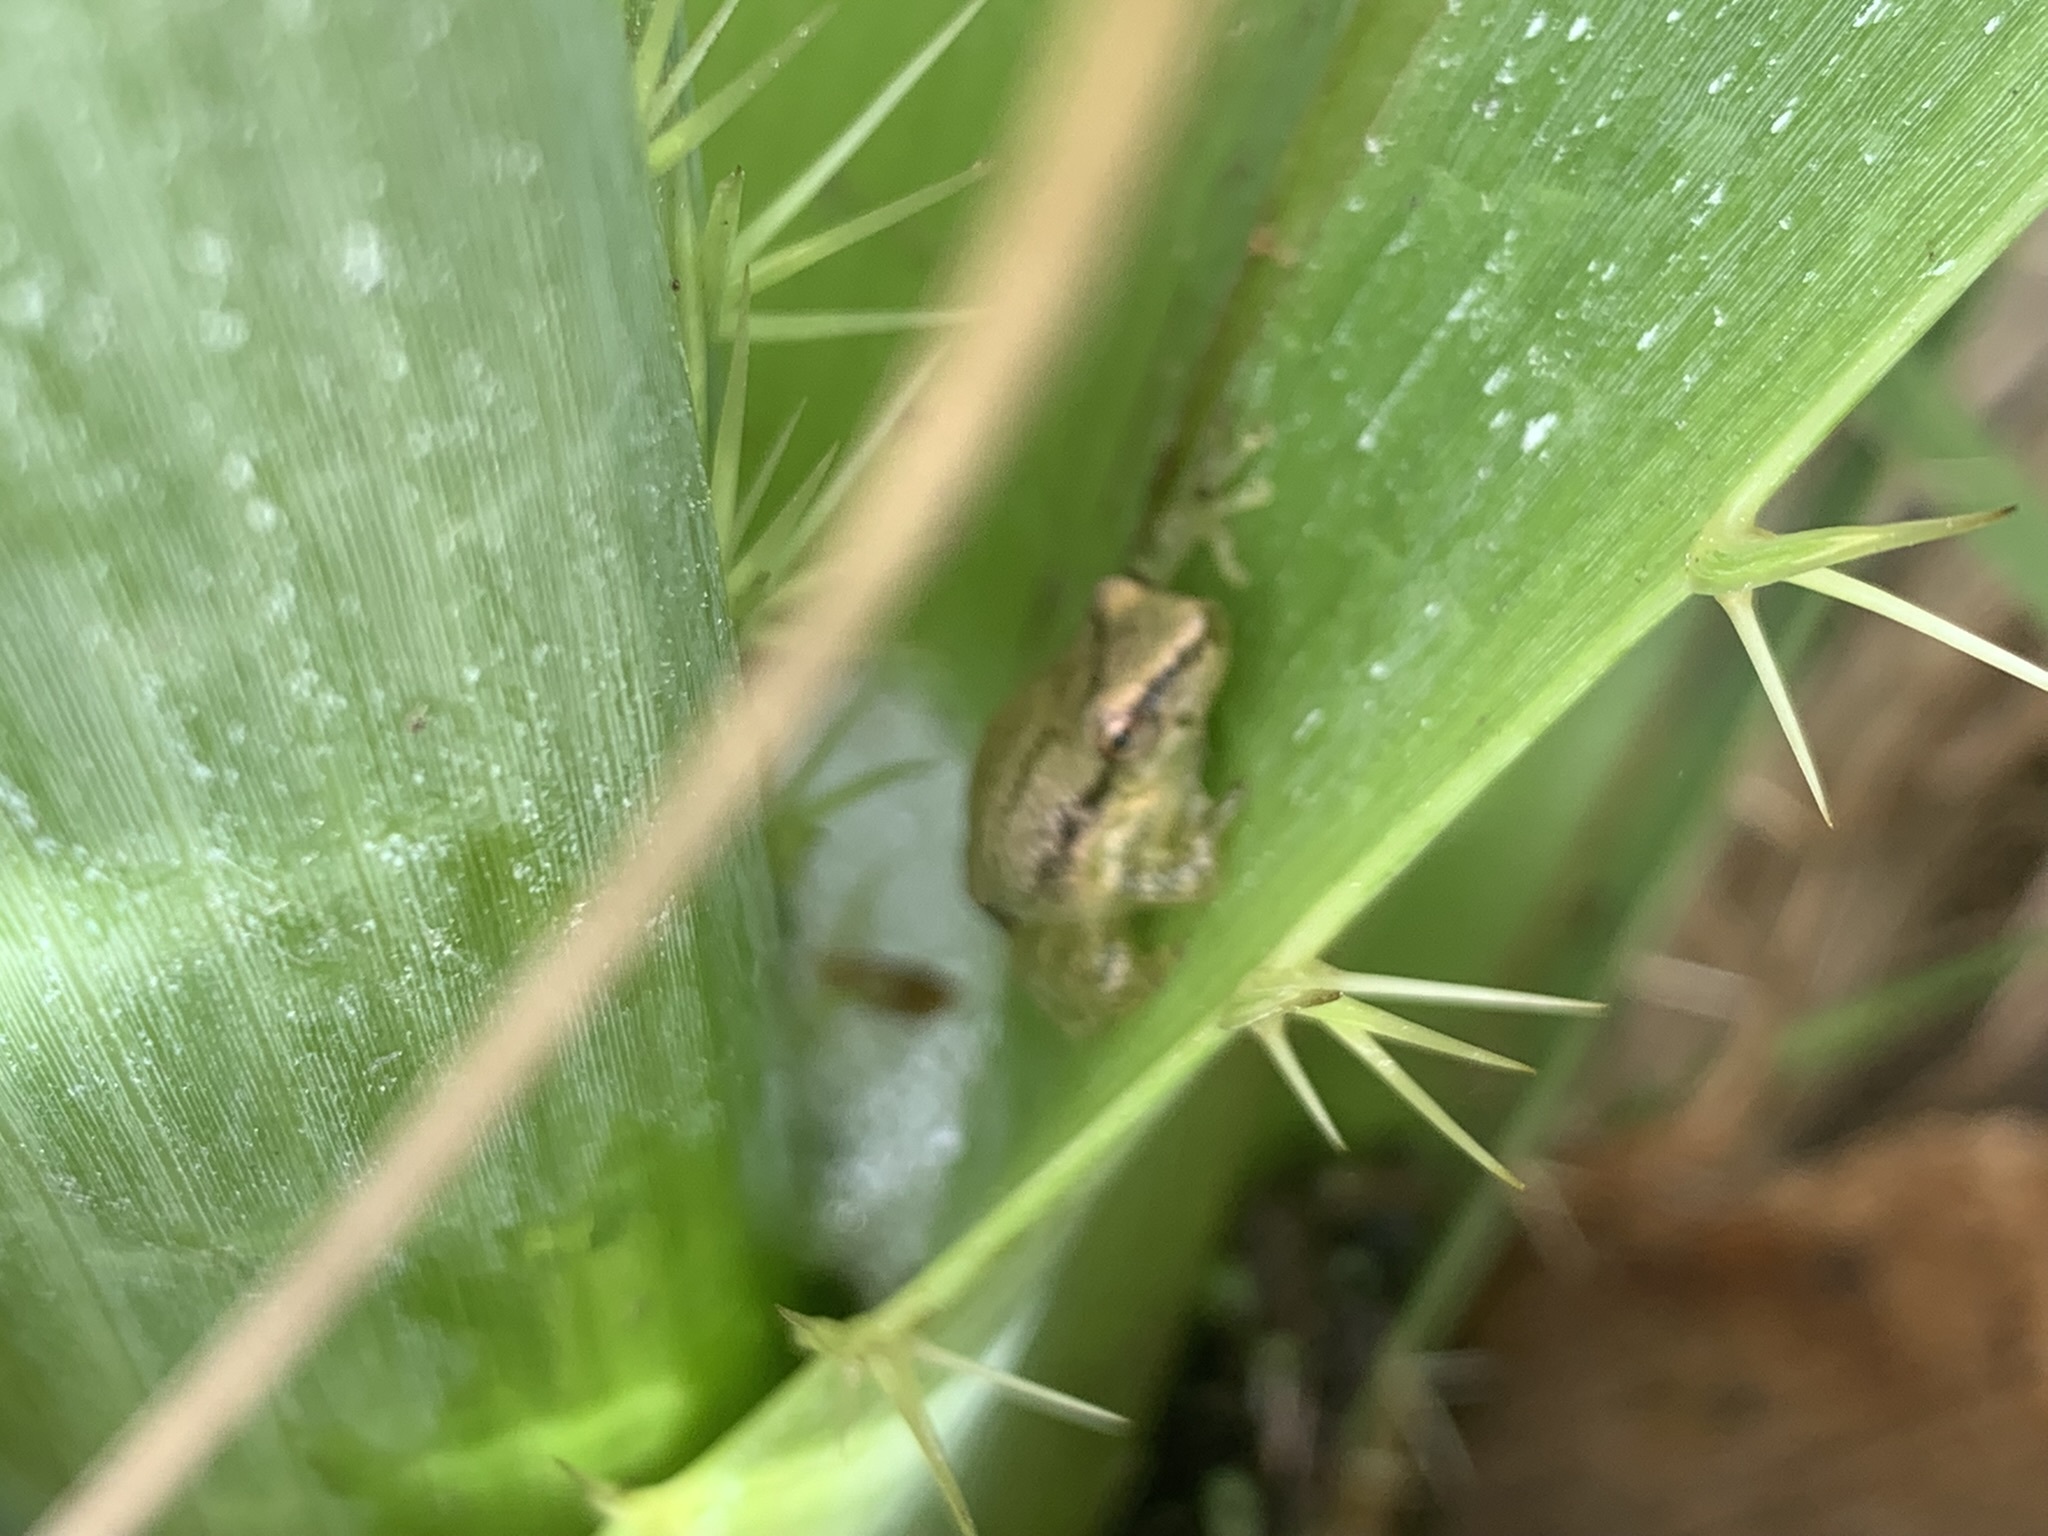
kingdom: Animalia
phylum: Chordata
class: Amphibia
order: Anura
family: Hylidae
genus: Scinax
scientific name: Scinax nasicus
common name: Lesser snouted treefrog
